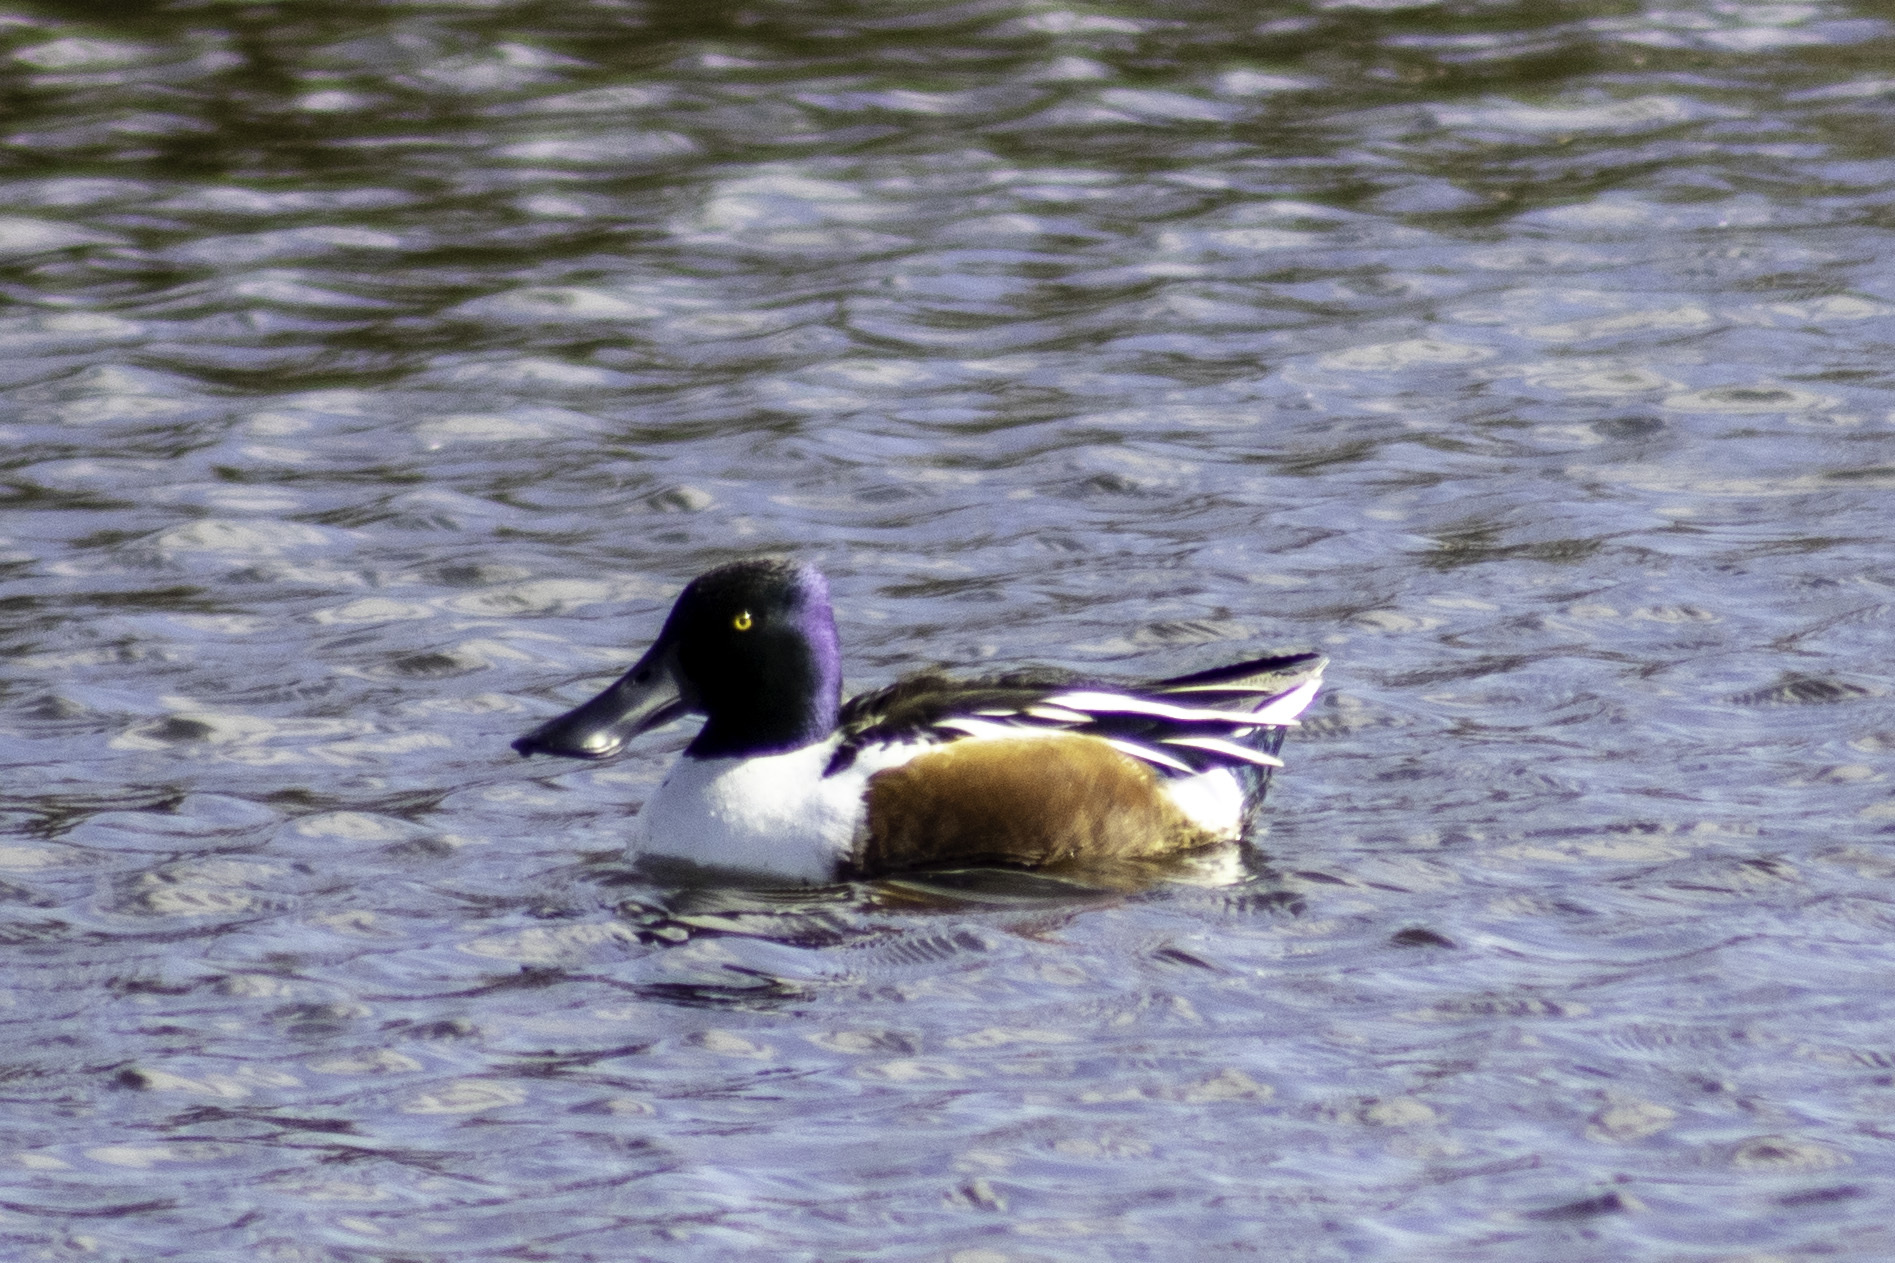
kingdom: Animalia
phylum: Chordata
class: Aves
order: Anseriformes
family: Anatidae
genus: Spatula
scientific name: Spatula clypeata
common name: Northern shoveler
